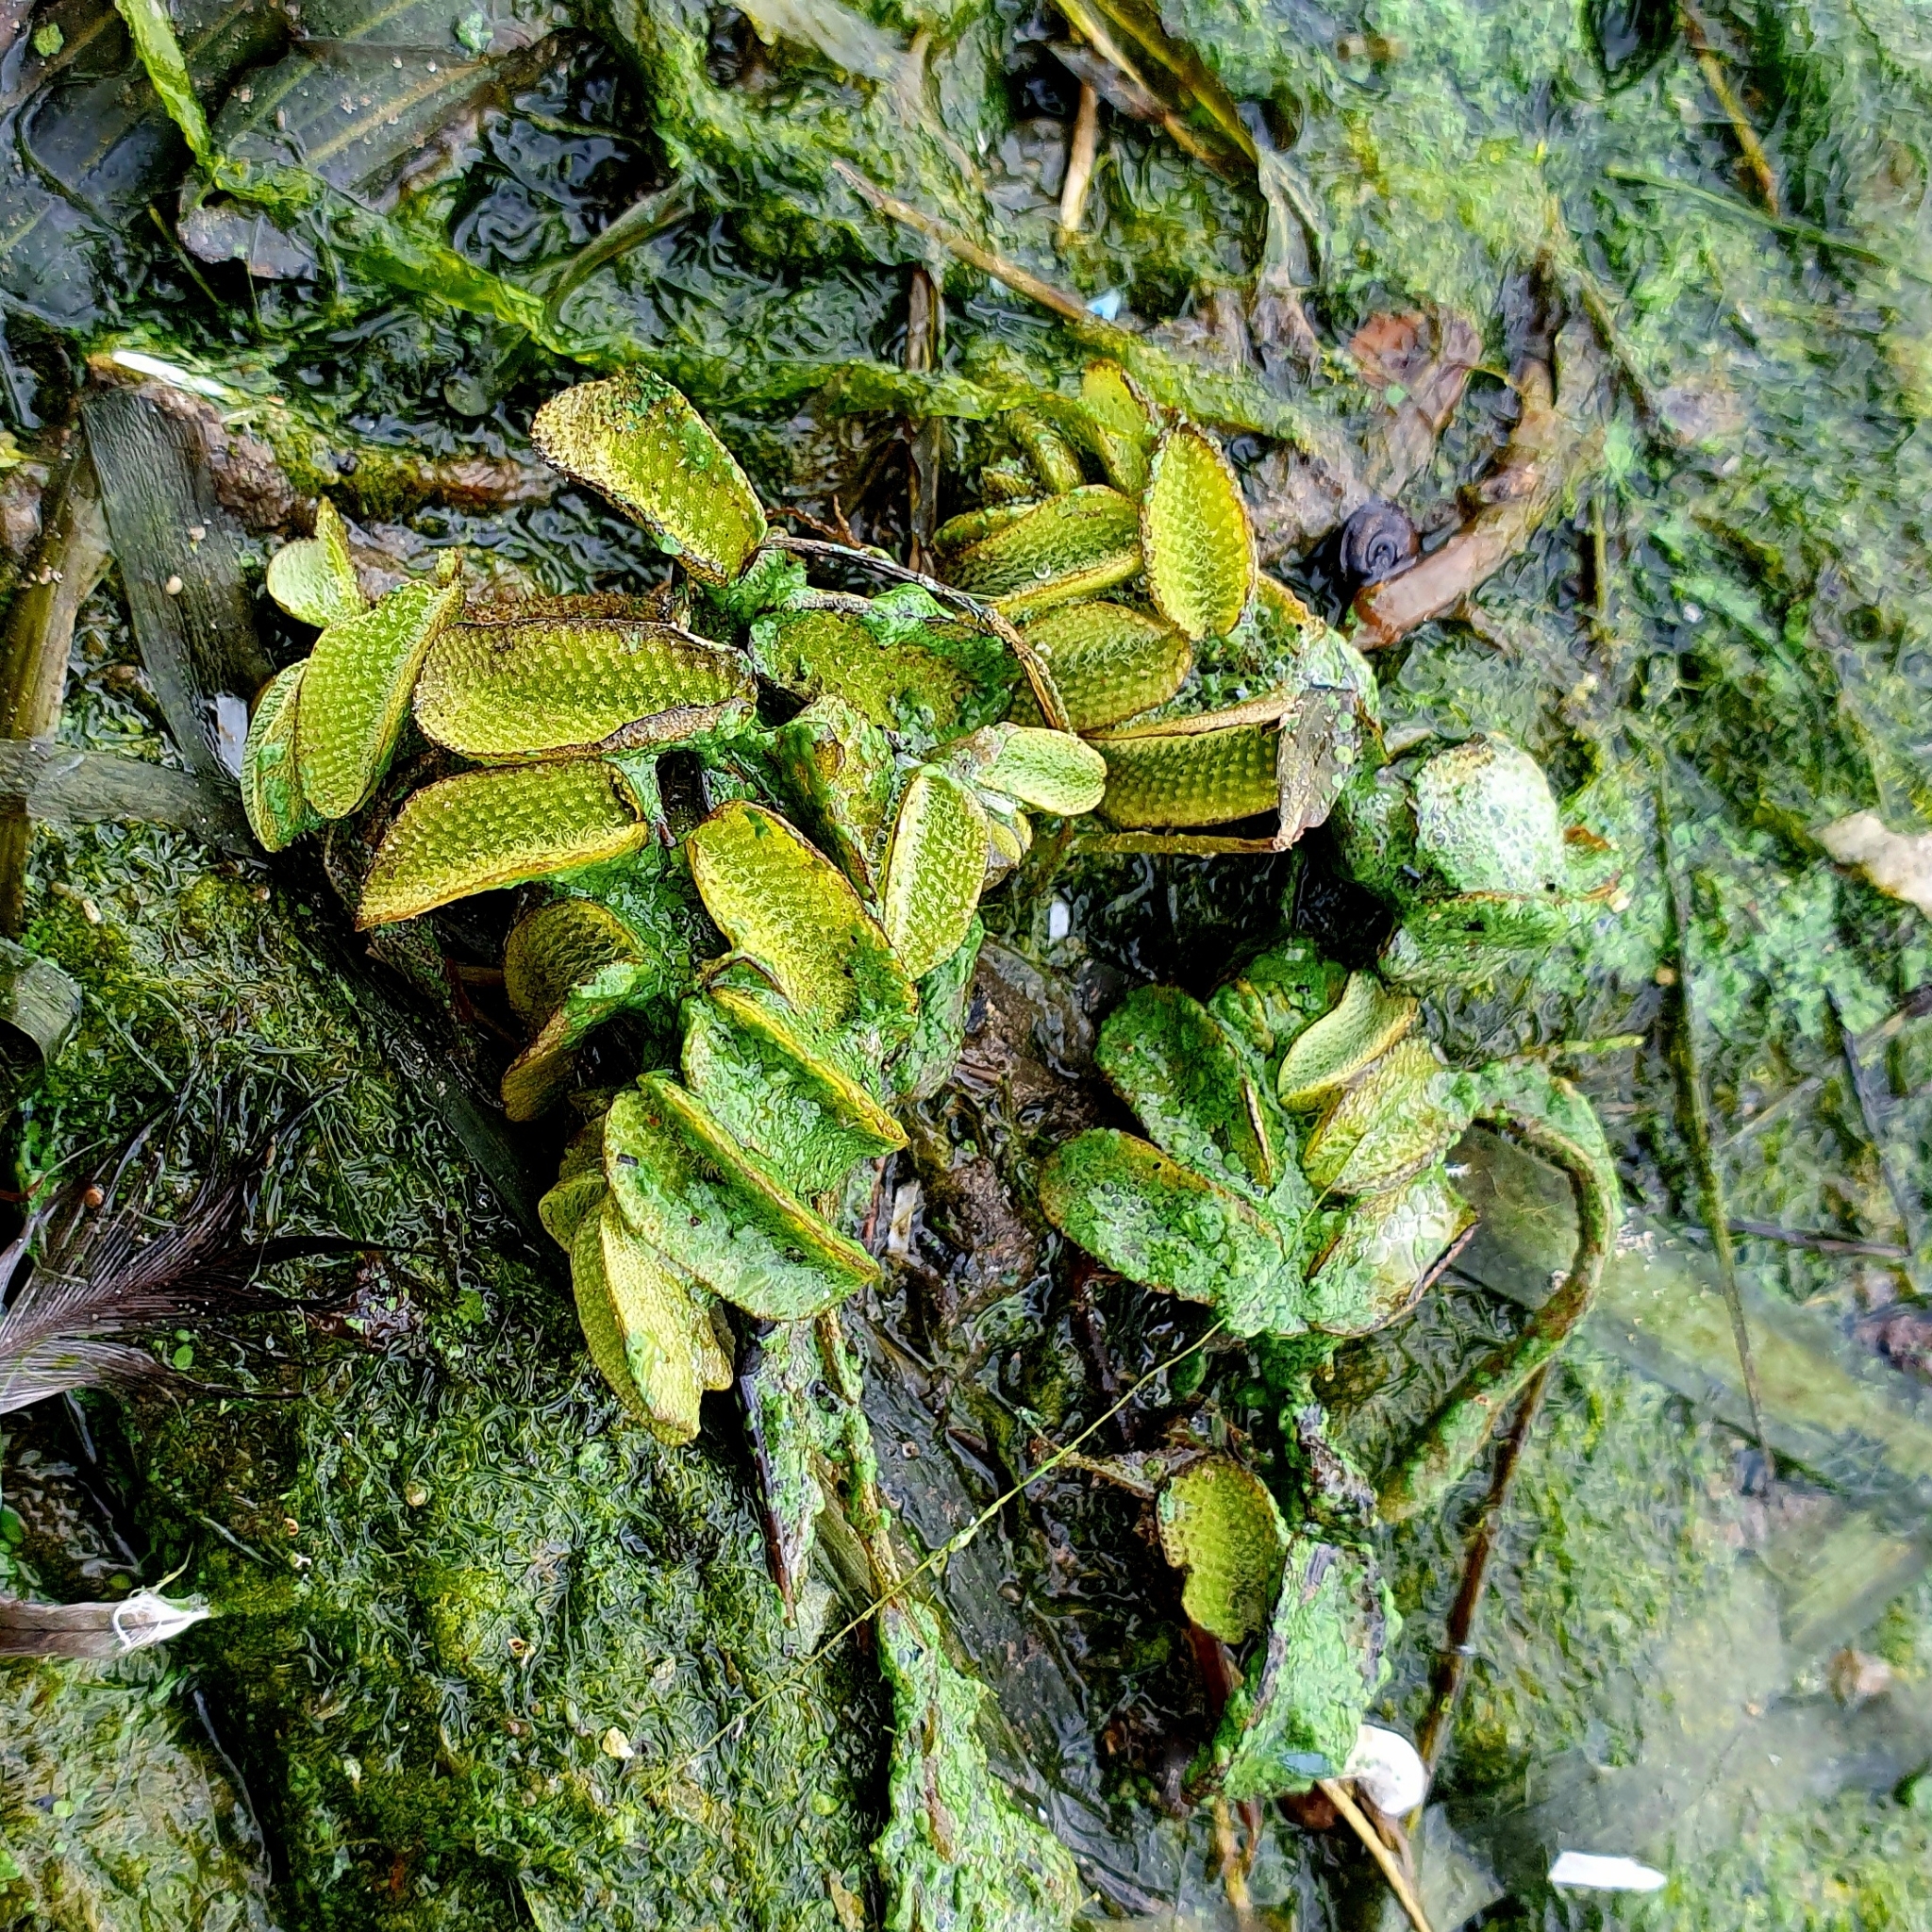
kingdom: Plantae
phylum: Tracheophyta
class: Polypodiopsida
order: Salviniales
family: Salviniaceae
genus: Salvinia
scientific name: Salvinia natans
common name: Floating fern
